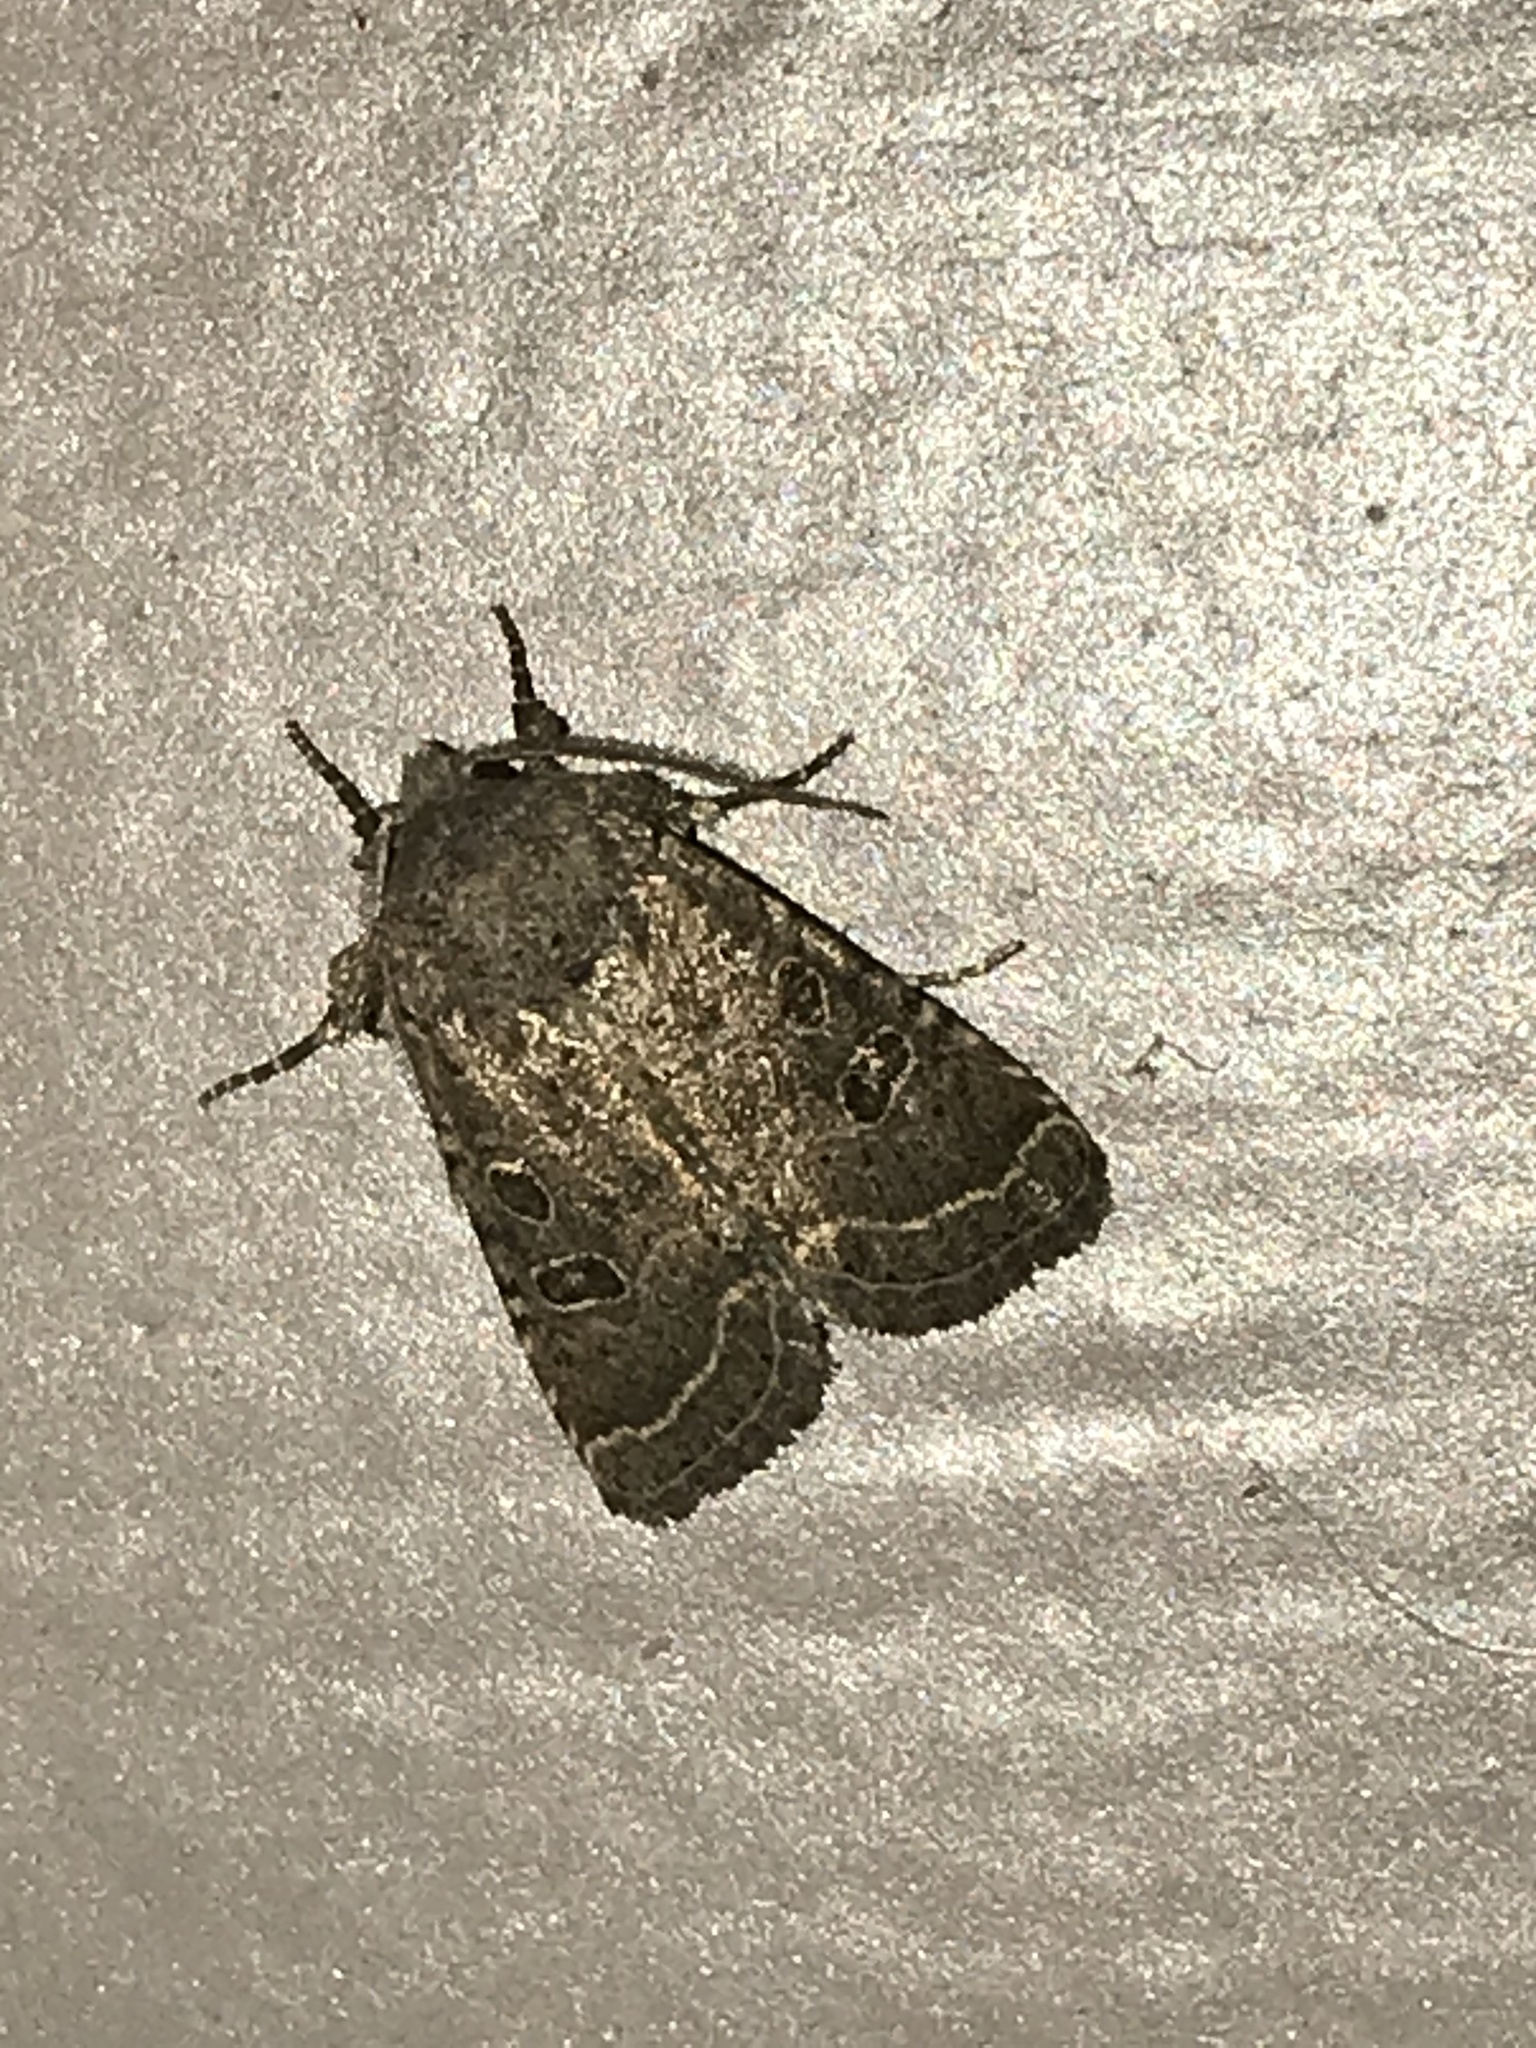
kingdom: Animalia
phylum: Arthropoda
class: Insecta
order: Lepidoptera
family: Noctuidae
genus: Trichopolia
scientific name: Trichopolia
